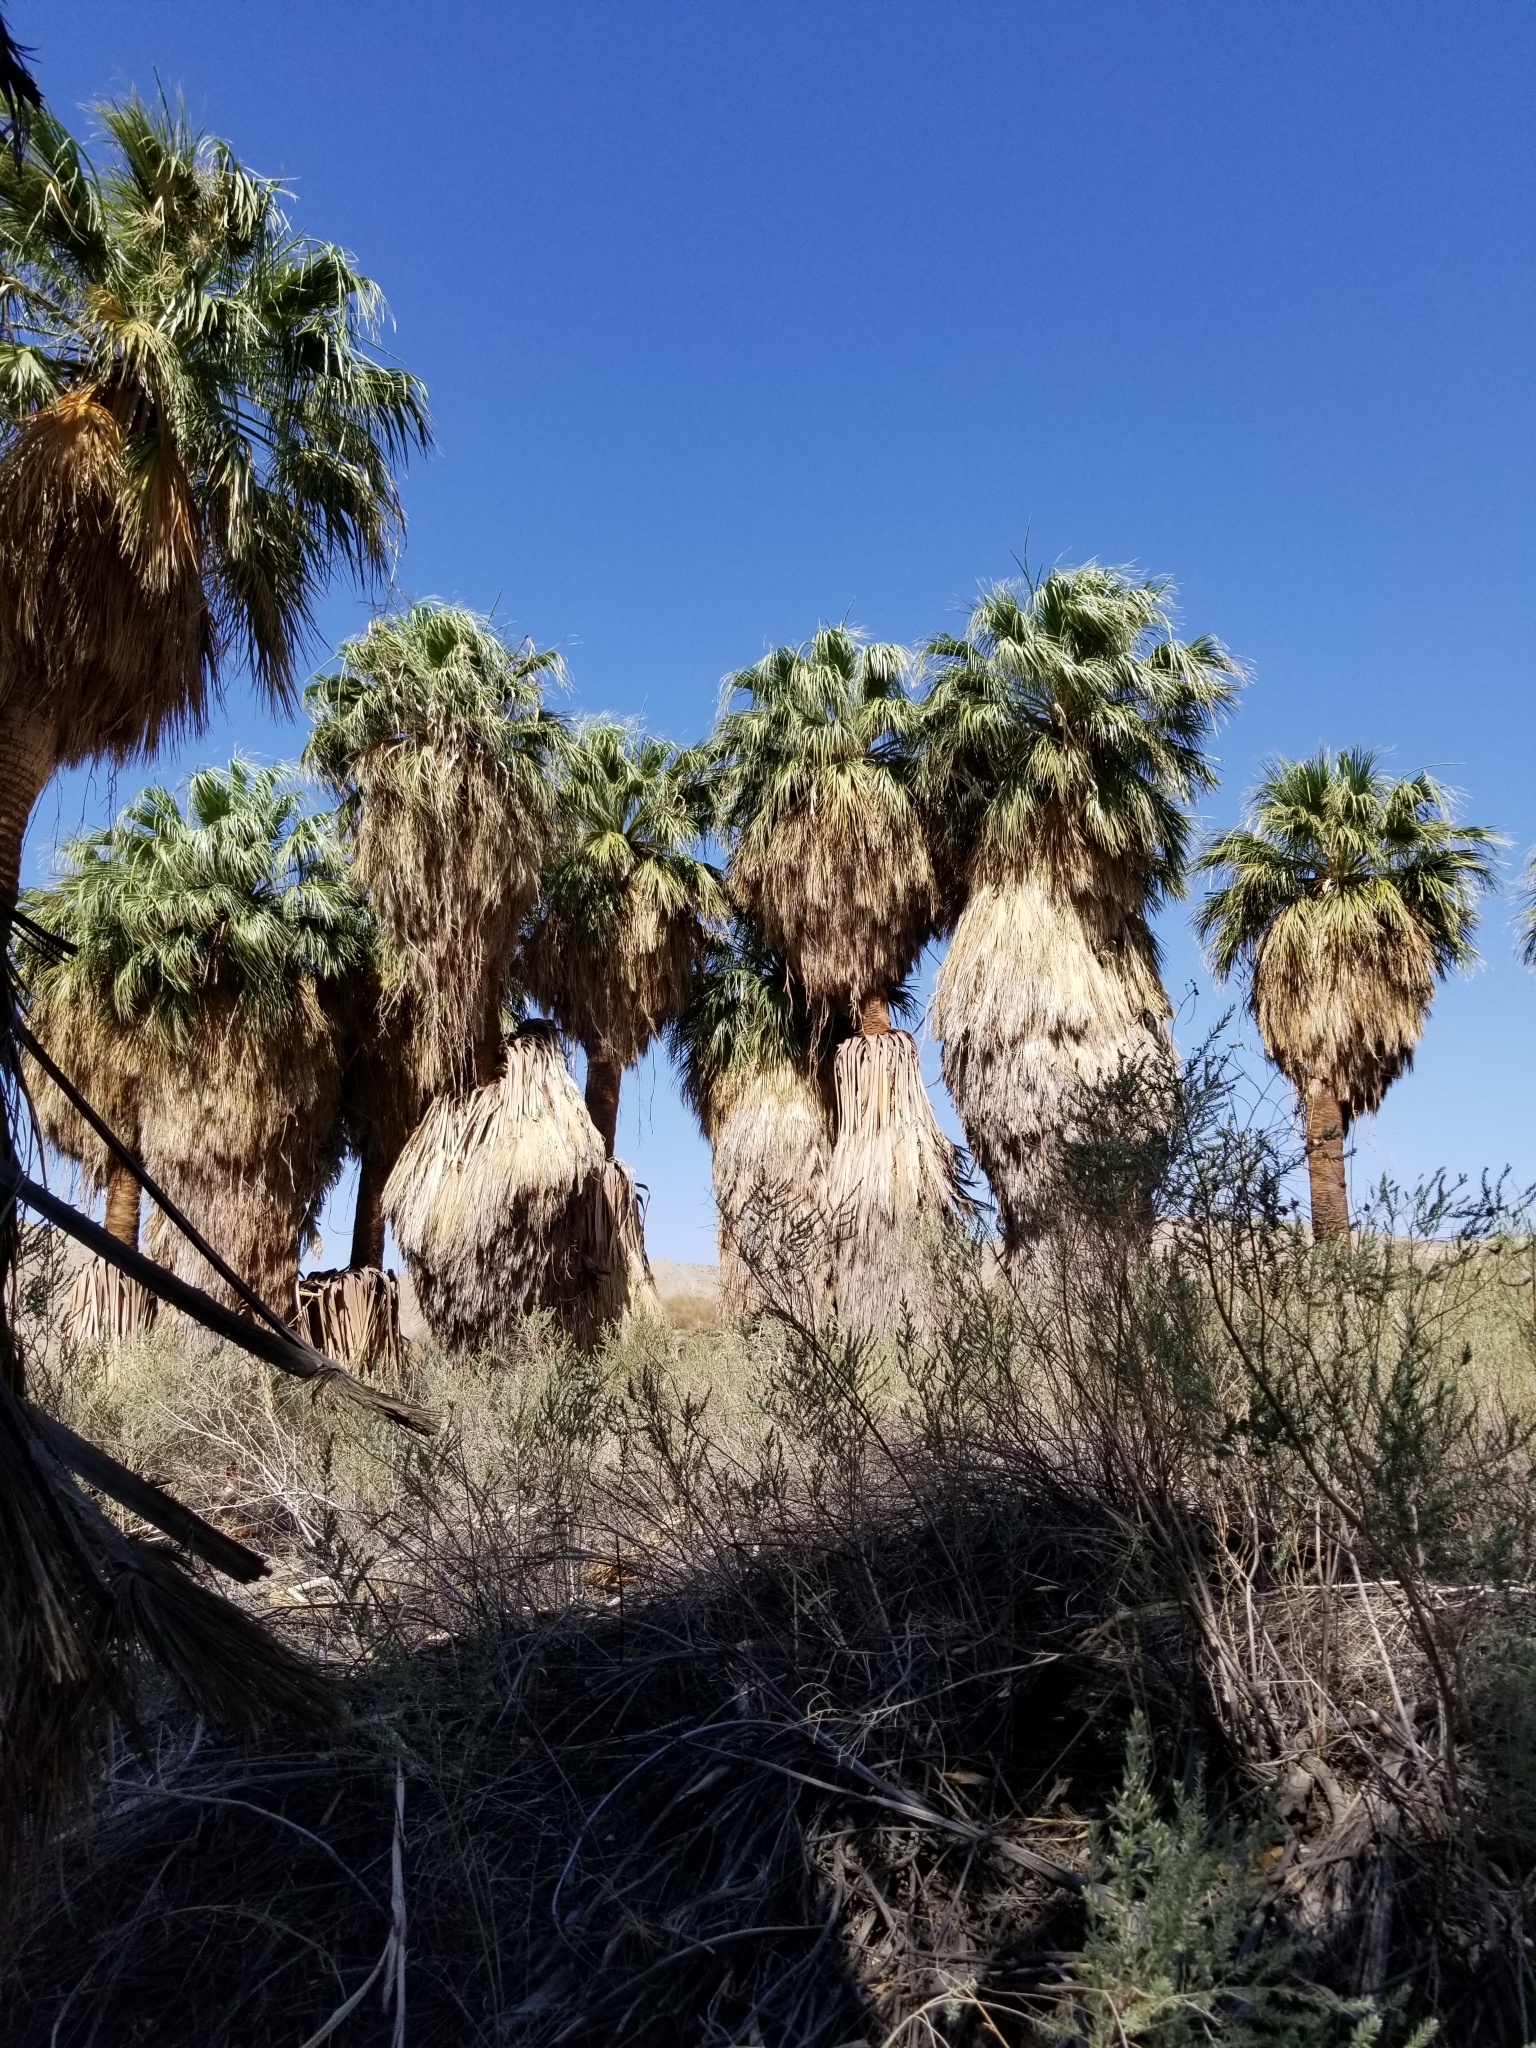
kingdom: Plantae
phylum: Tracheophyta
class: Liliopsida
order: Arecales
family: Arecaceae
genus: Washingtonia
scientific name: Washingtonia filifera
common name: California fan palm
